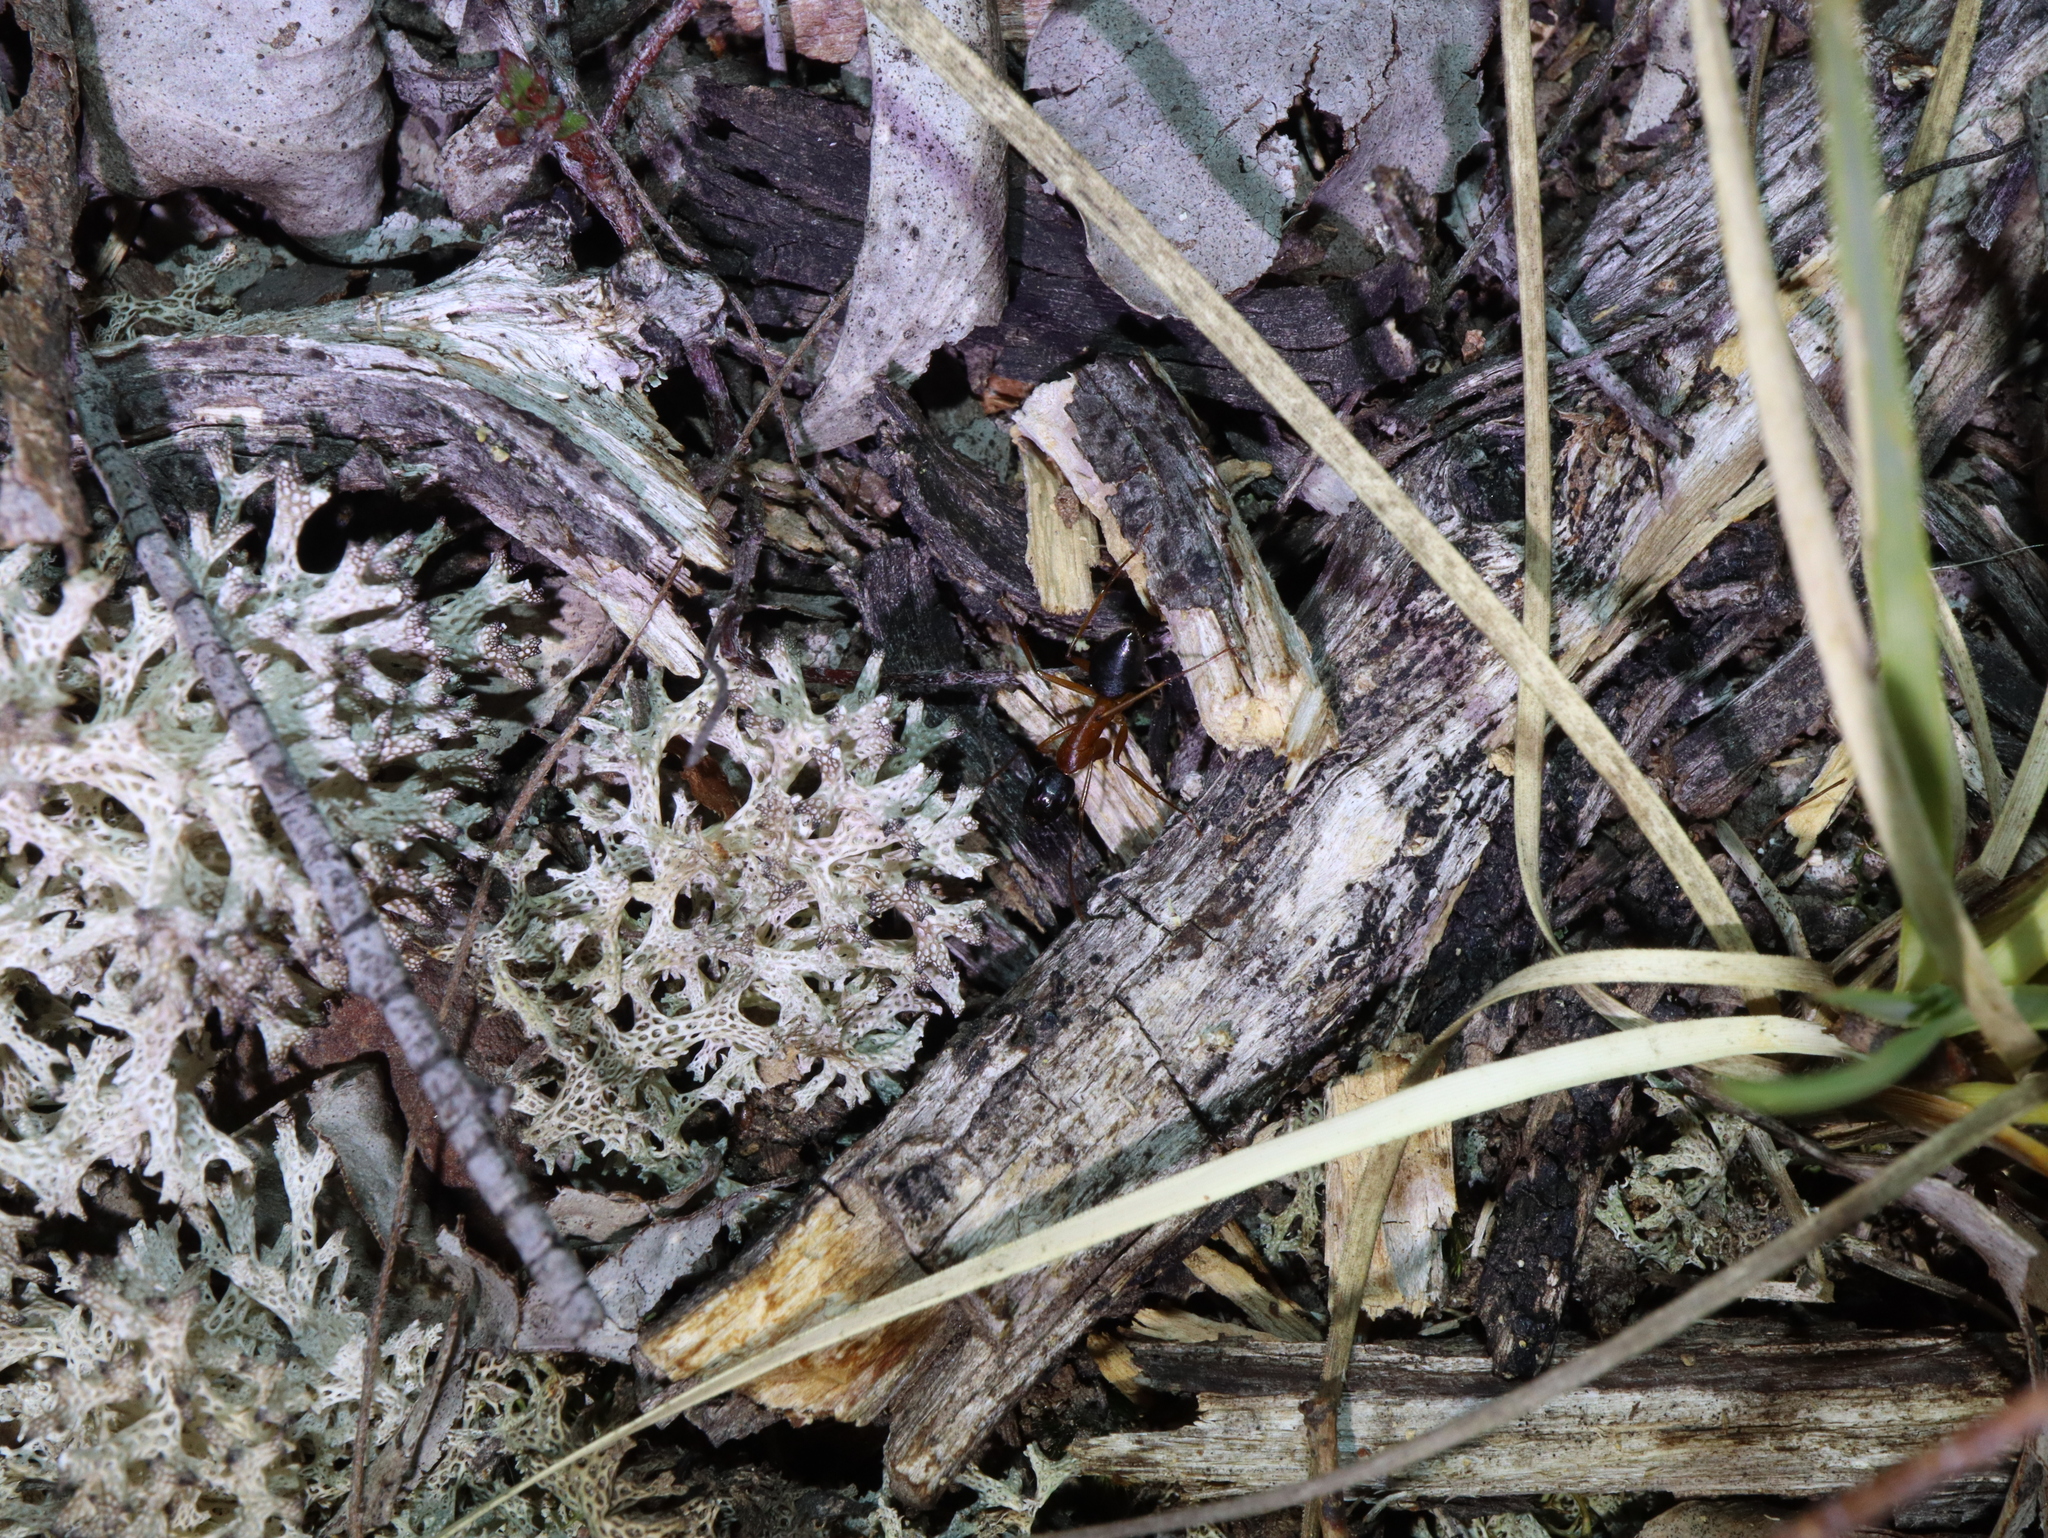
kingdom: Animalia
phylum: Arthropoda
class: Insecta
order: Hymenoptera
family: Formicidae
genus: Camponotus
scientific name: Camponotus consobrinus
